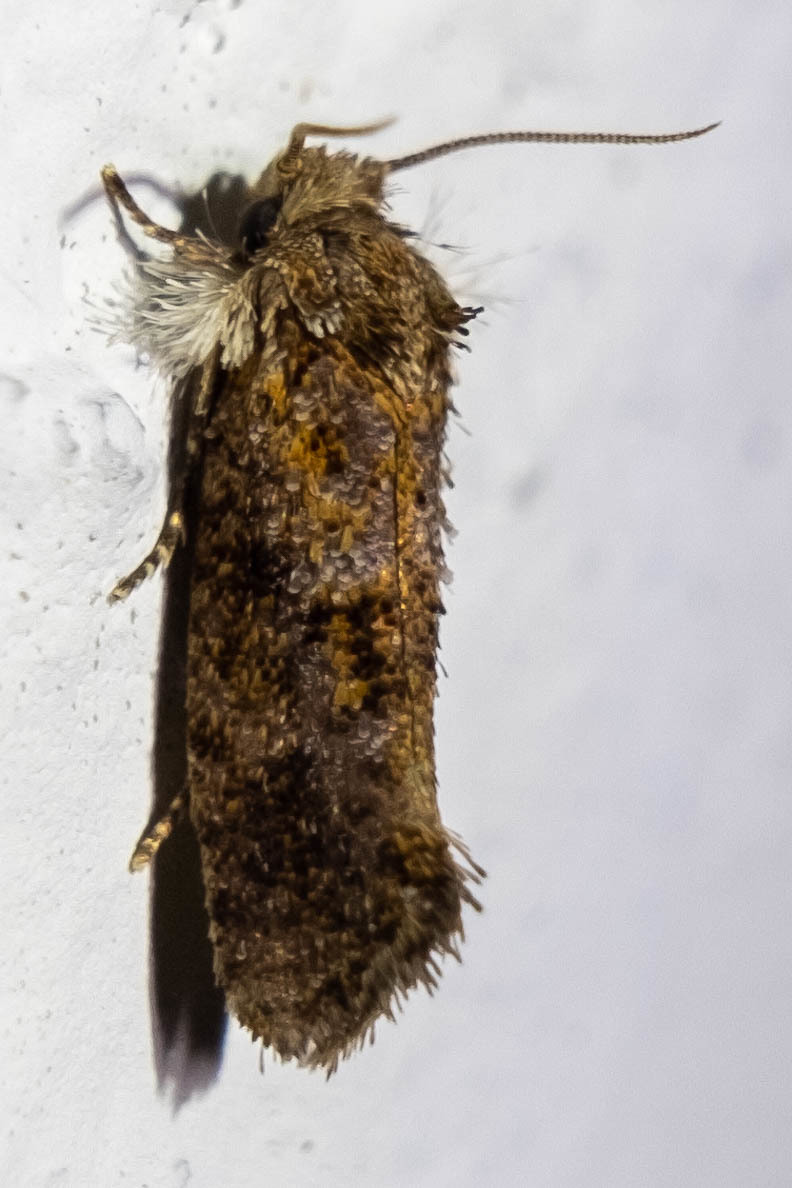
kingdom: Animalia
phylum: Arthropoda
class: Insecta
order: Lepidoptera
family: Tineidae
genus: Acrolophus
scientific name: Acrolophus panamae
